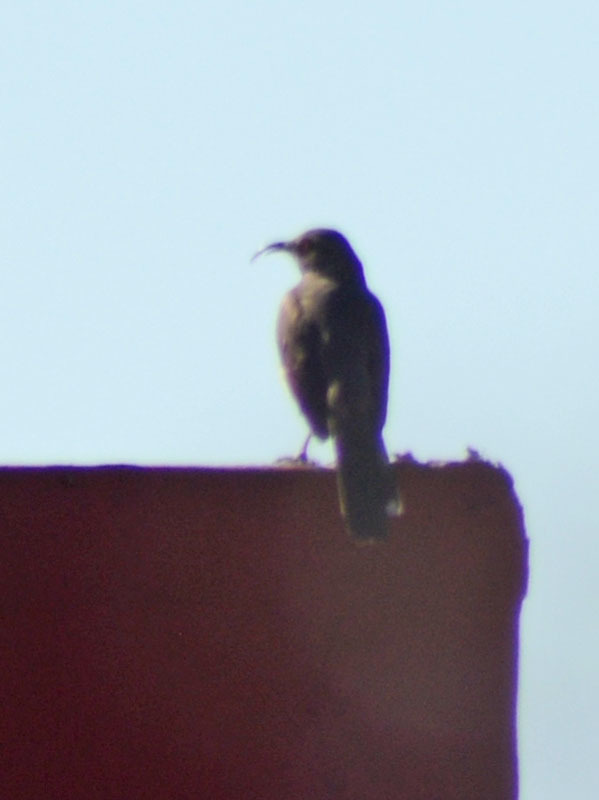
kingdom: Animalia
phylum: Chordata
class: Aves
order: Passeriformes
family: Mimidae
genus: Toxostoma
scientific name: Toxostoma curvirostre
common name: Curve-billed thrasher
